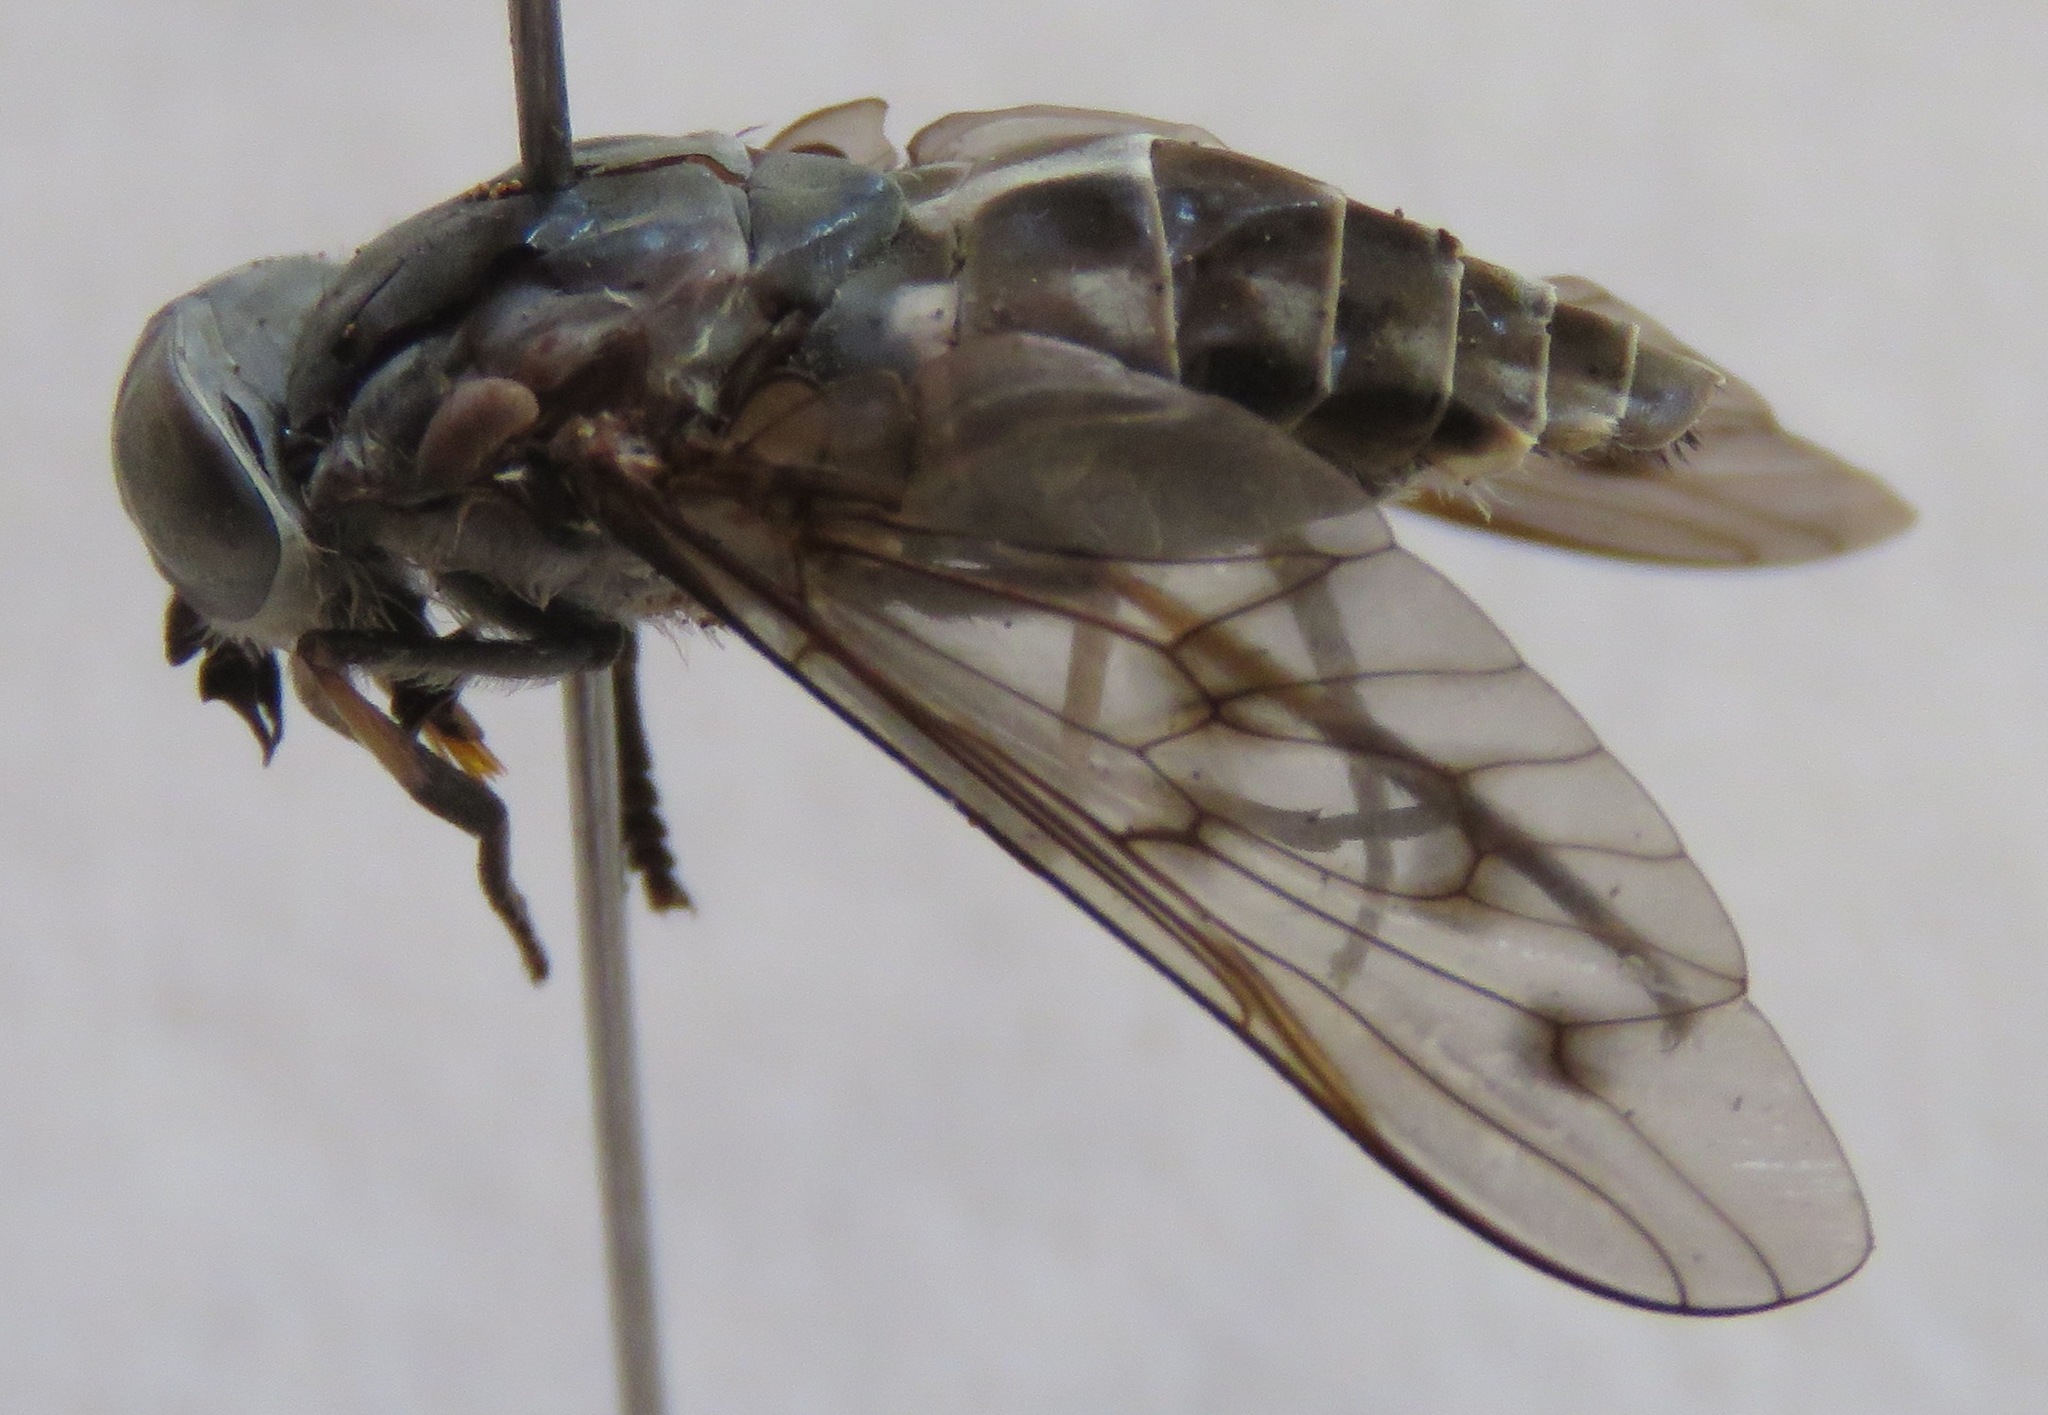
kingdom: Animalia
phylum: Arthropoda
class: Insecta
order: Diptera
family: Tabanidae
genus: Poeciloderas
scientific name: Poeciloderas quadripunctatus
